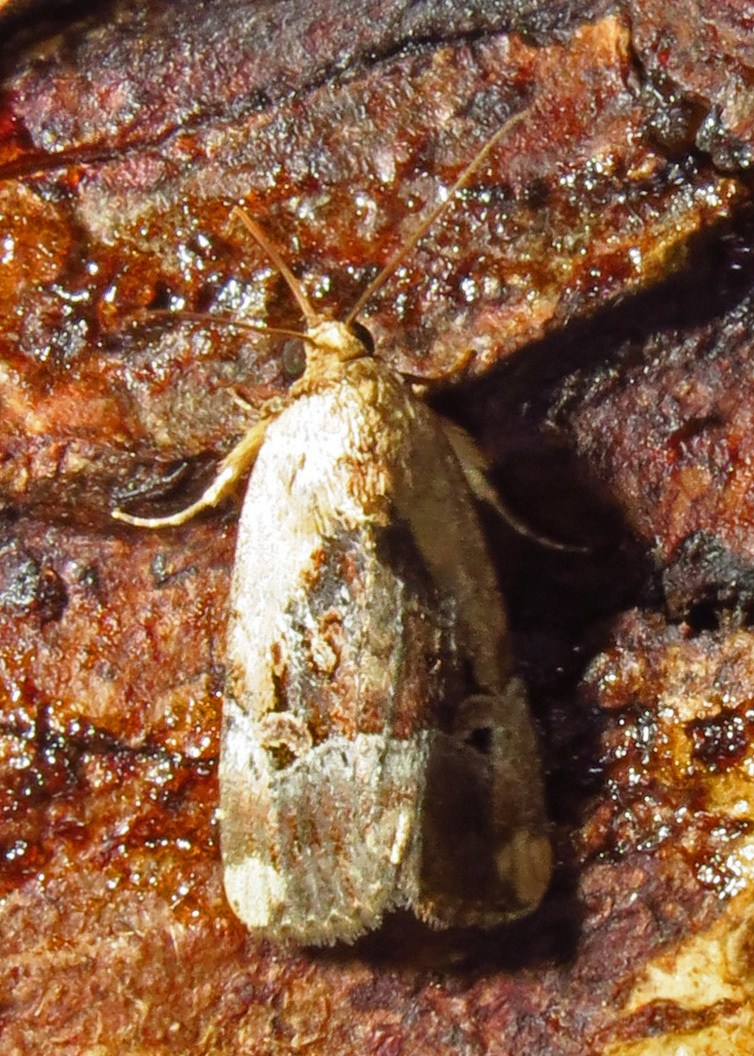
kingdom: Animalia
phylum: Arthropoda
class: Insecta
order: Lepidoptera
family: Noctuidae
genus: Elaphria
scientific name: Elaphria chalcedonia
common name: Chalcedony midget
